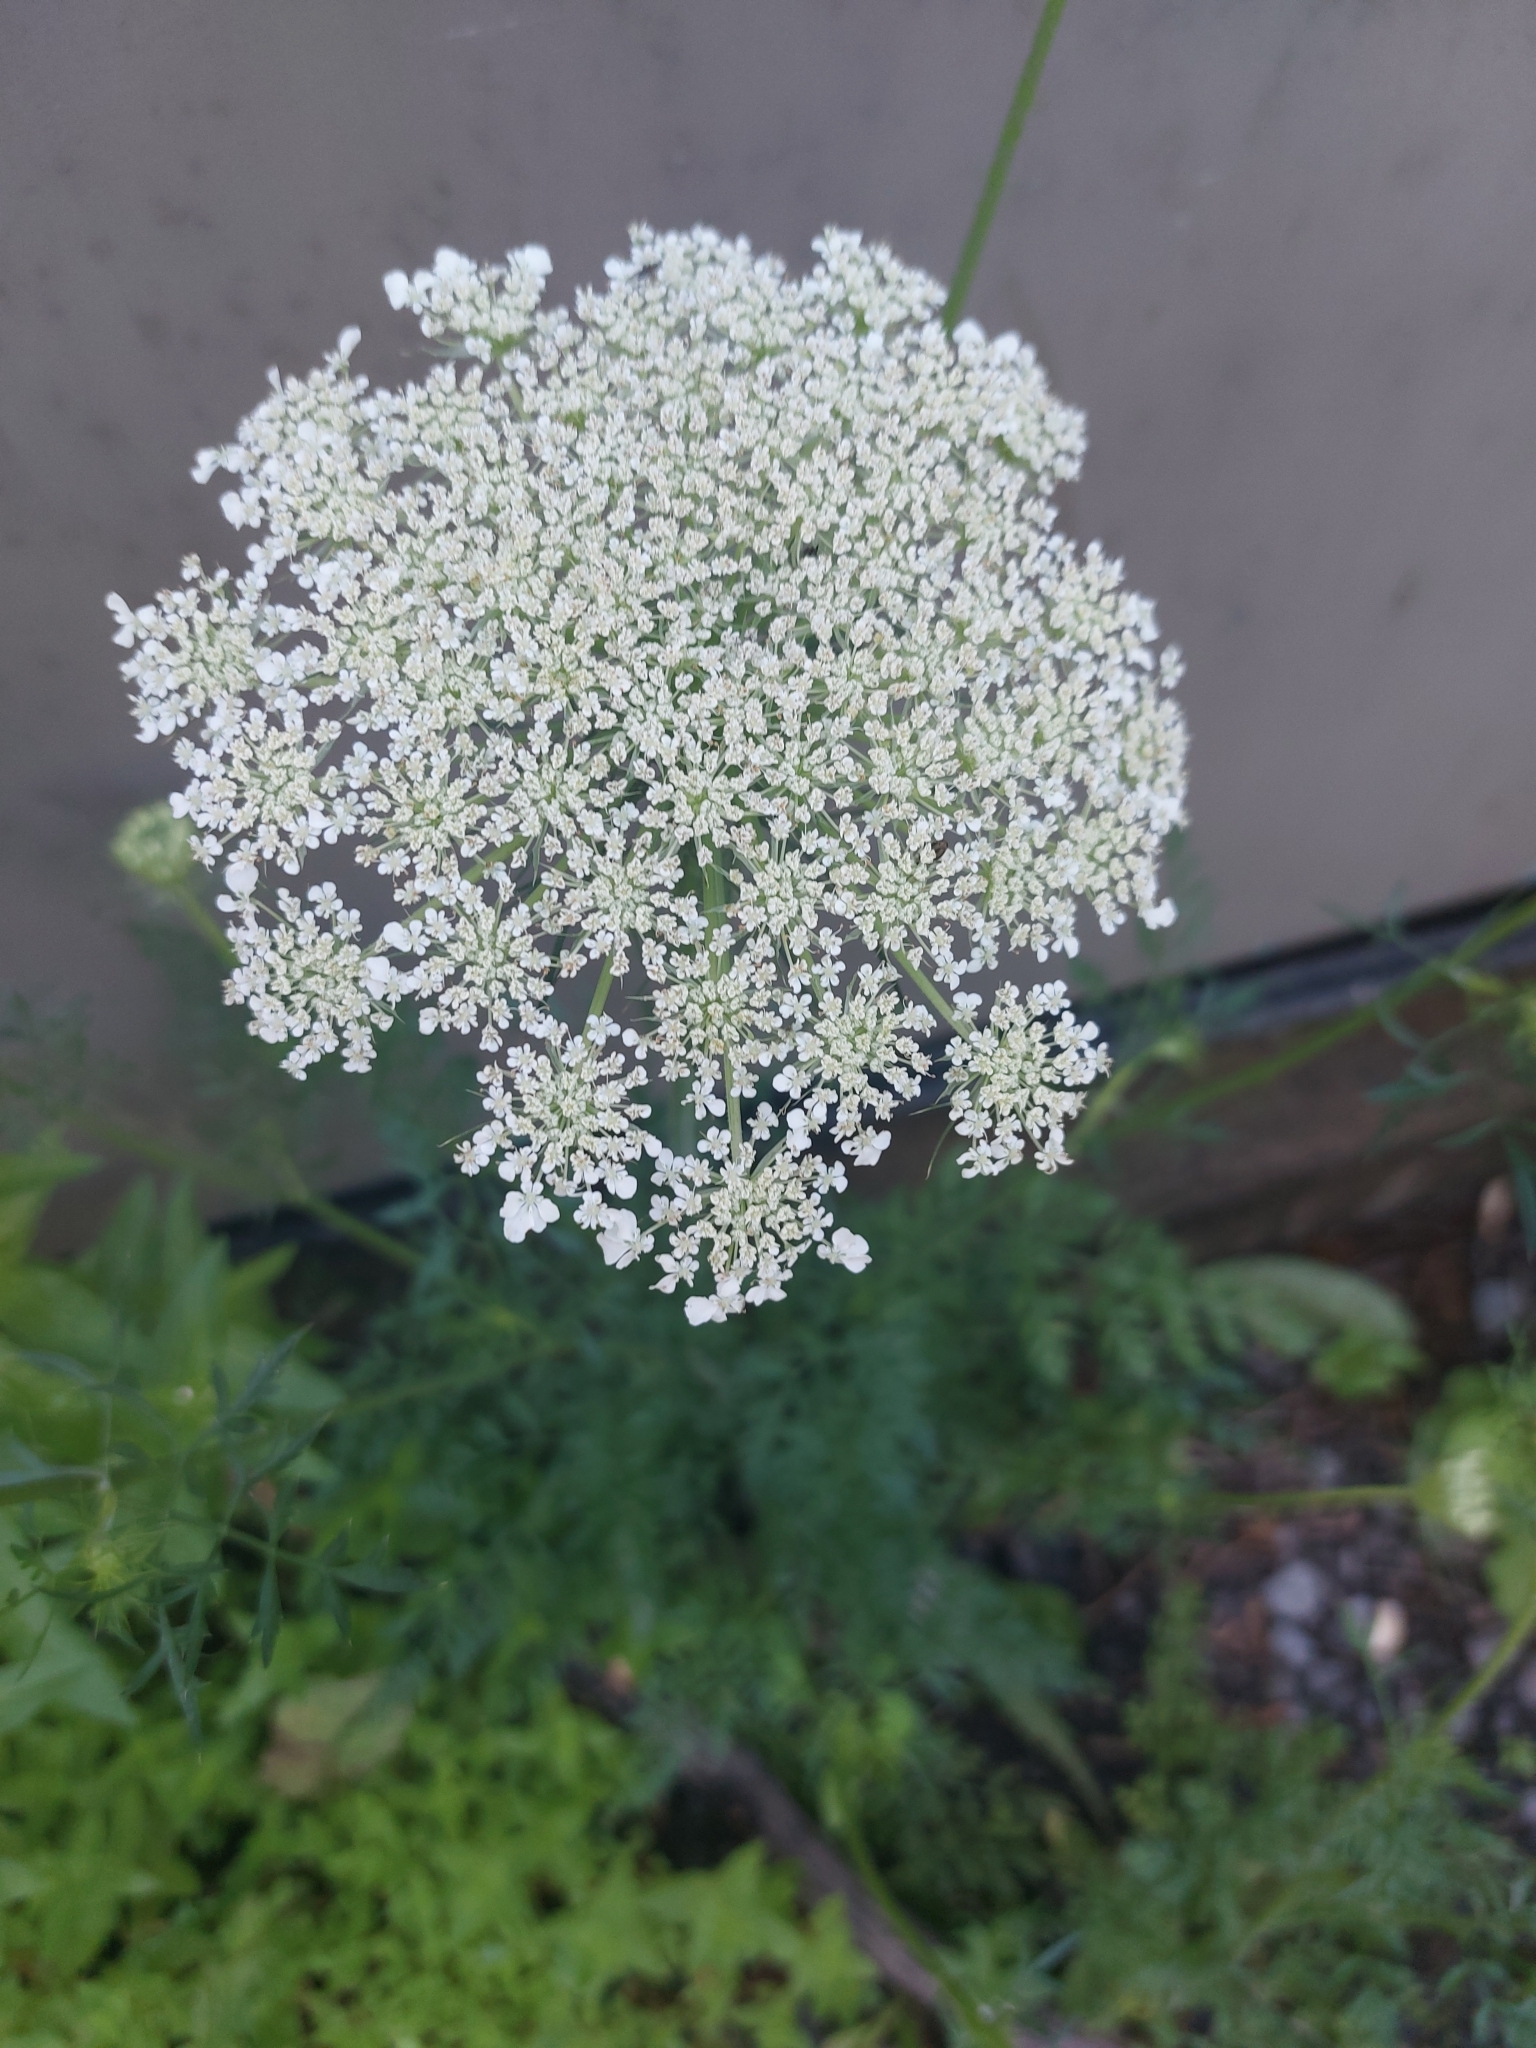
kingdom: Plantae
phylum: Tracheophyta
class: Magnoliopsida
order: Apiales
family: Apiaceae
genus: Daucus
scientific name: Daucus carota
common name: Wild carrot
